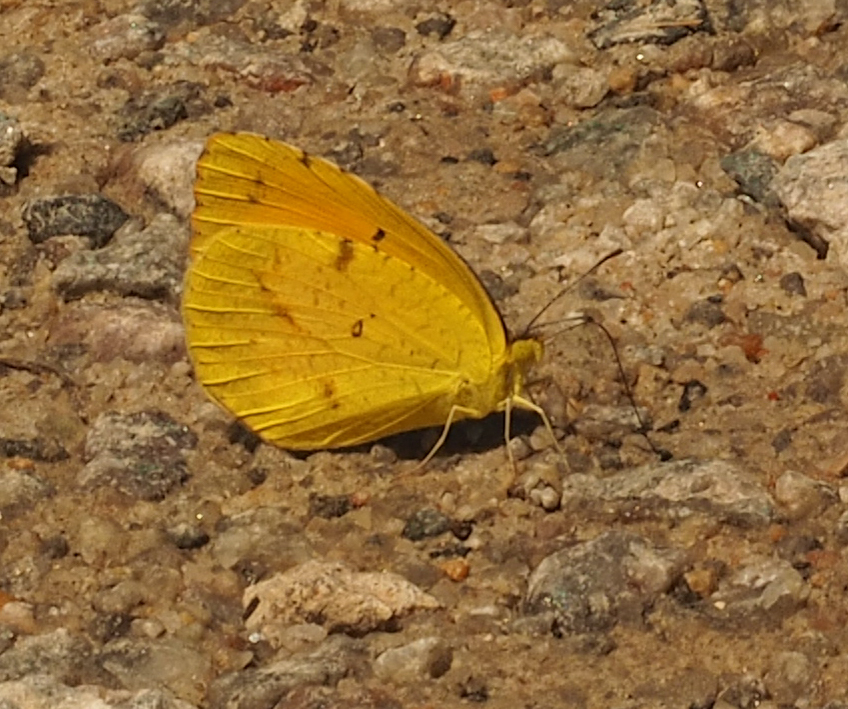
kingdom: Animalia
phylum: Arthropoda
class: Insecta
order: Lepidoptera
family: Pieridae
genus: Abaeis
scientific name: Abaeis nicippe
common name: Sleepy orange
